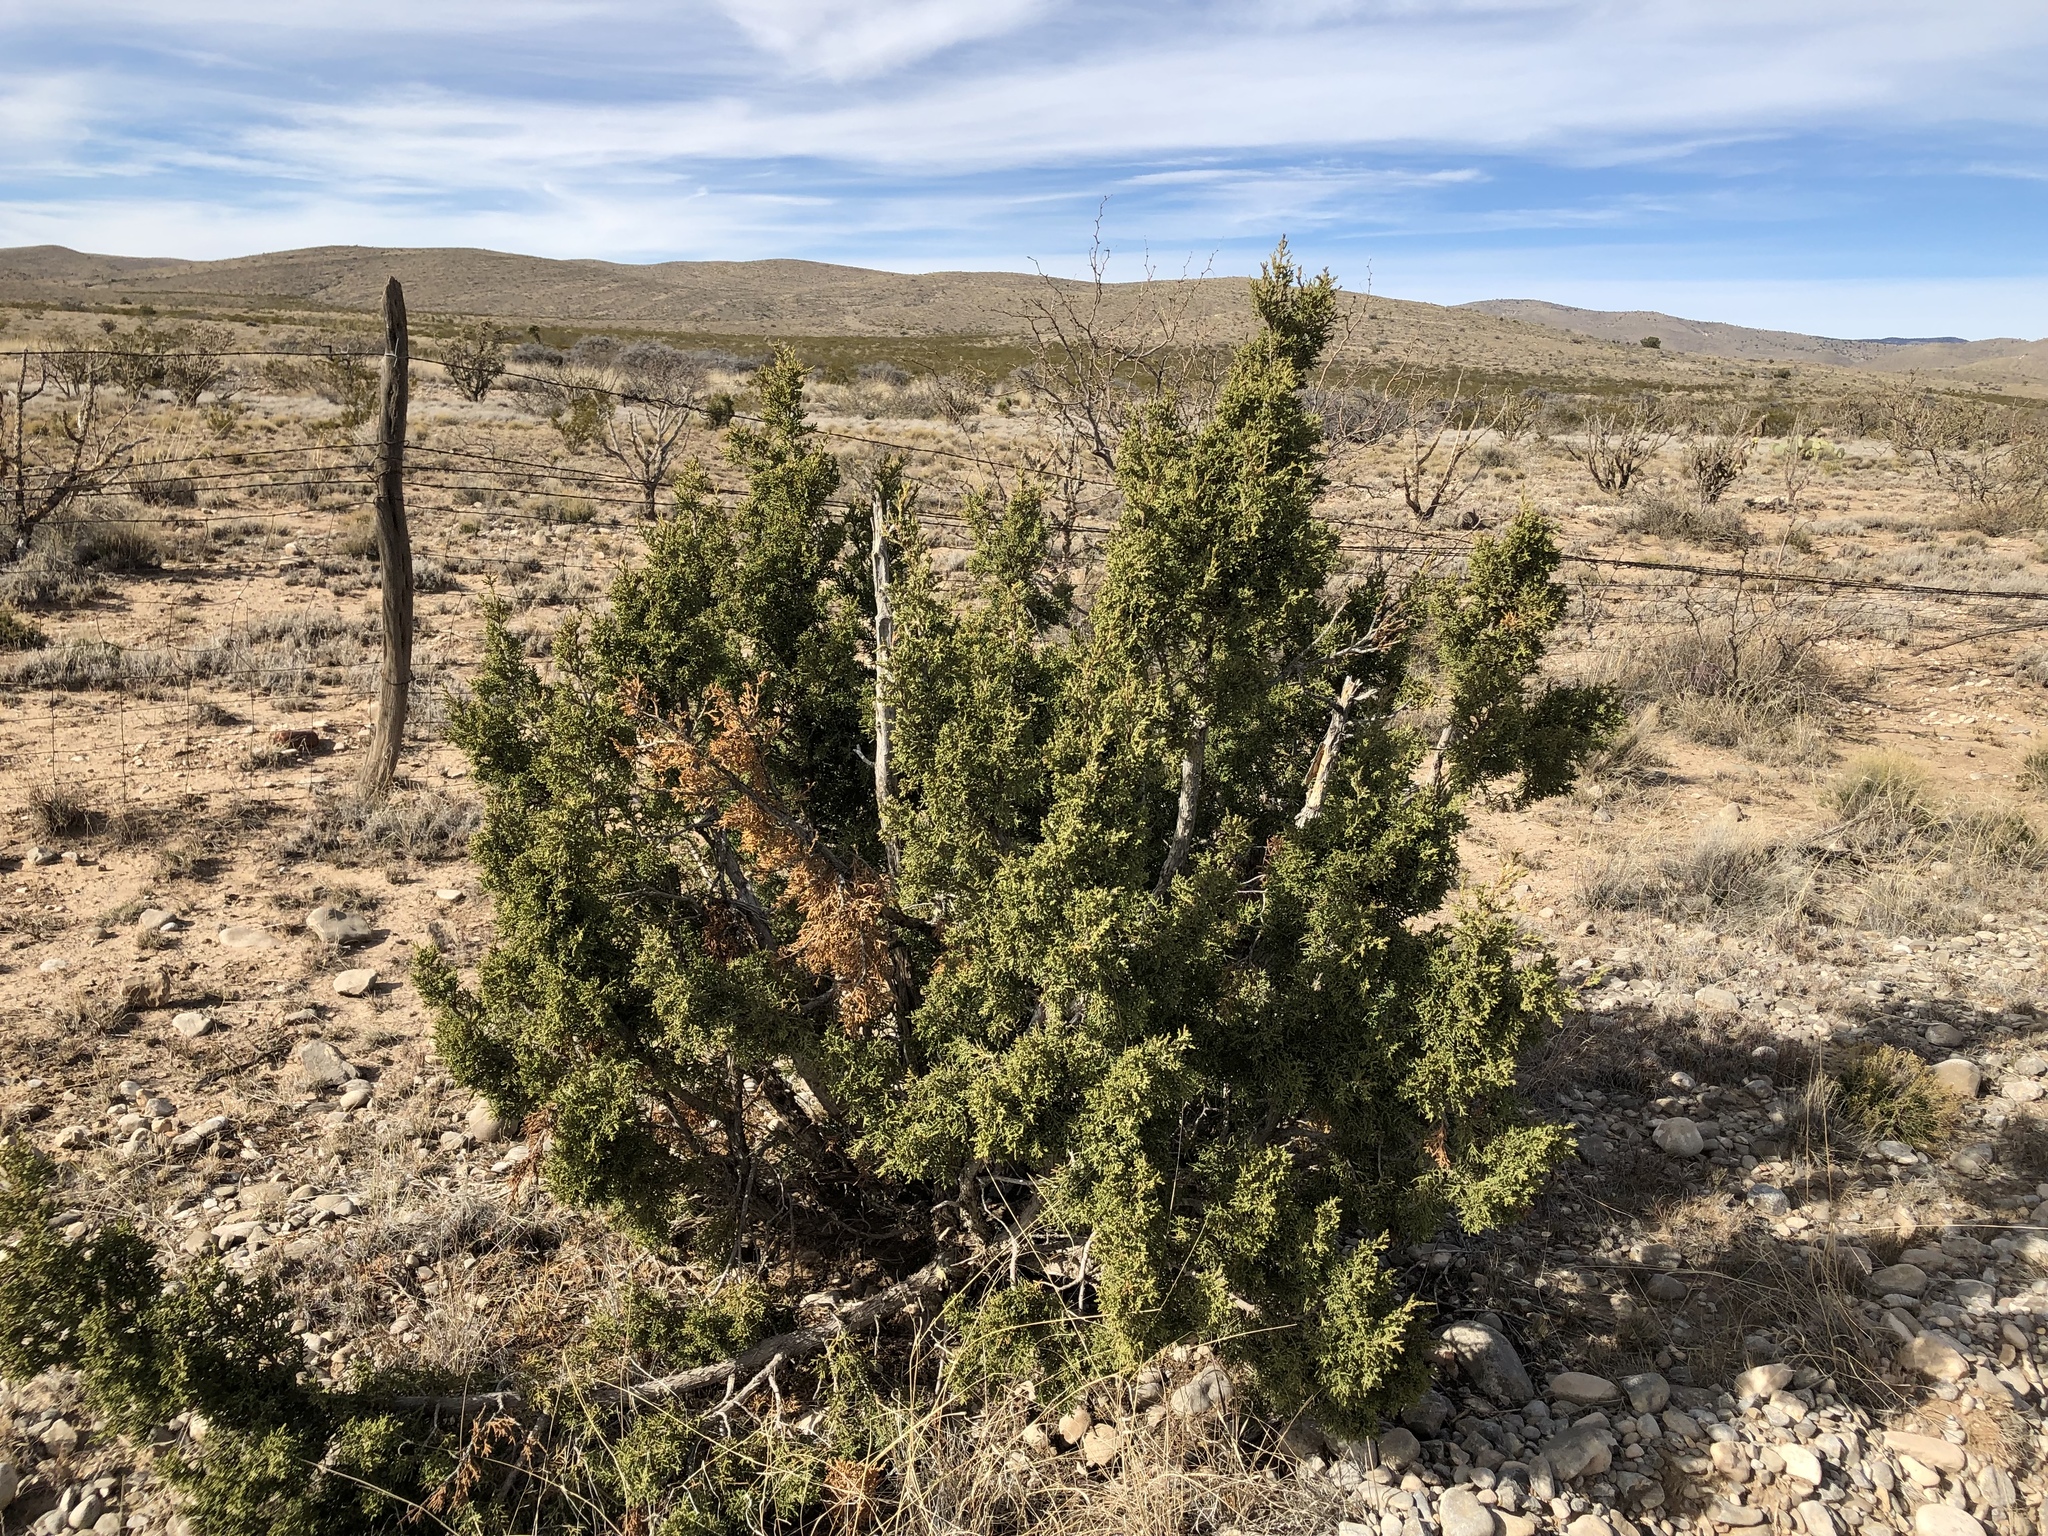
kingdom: Plantae
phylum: Tracheophyta
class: Pinopsida
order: Pinales
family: Cupressaceae
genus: Juniperus
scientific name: Juniperus monosperma
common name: One-seed juniper
